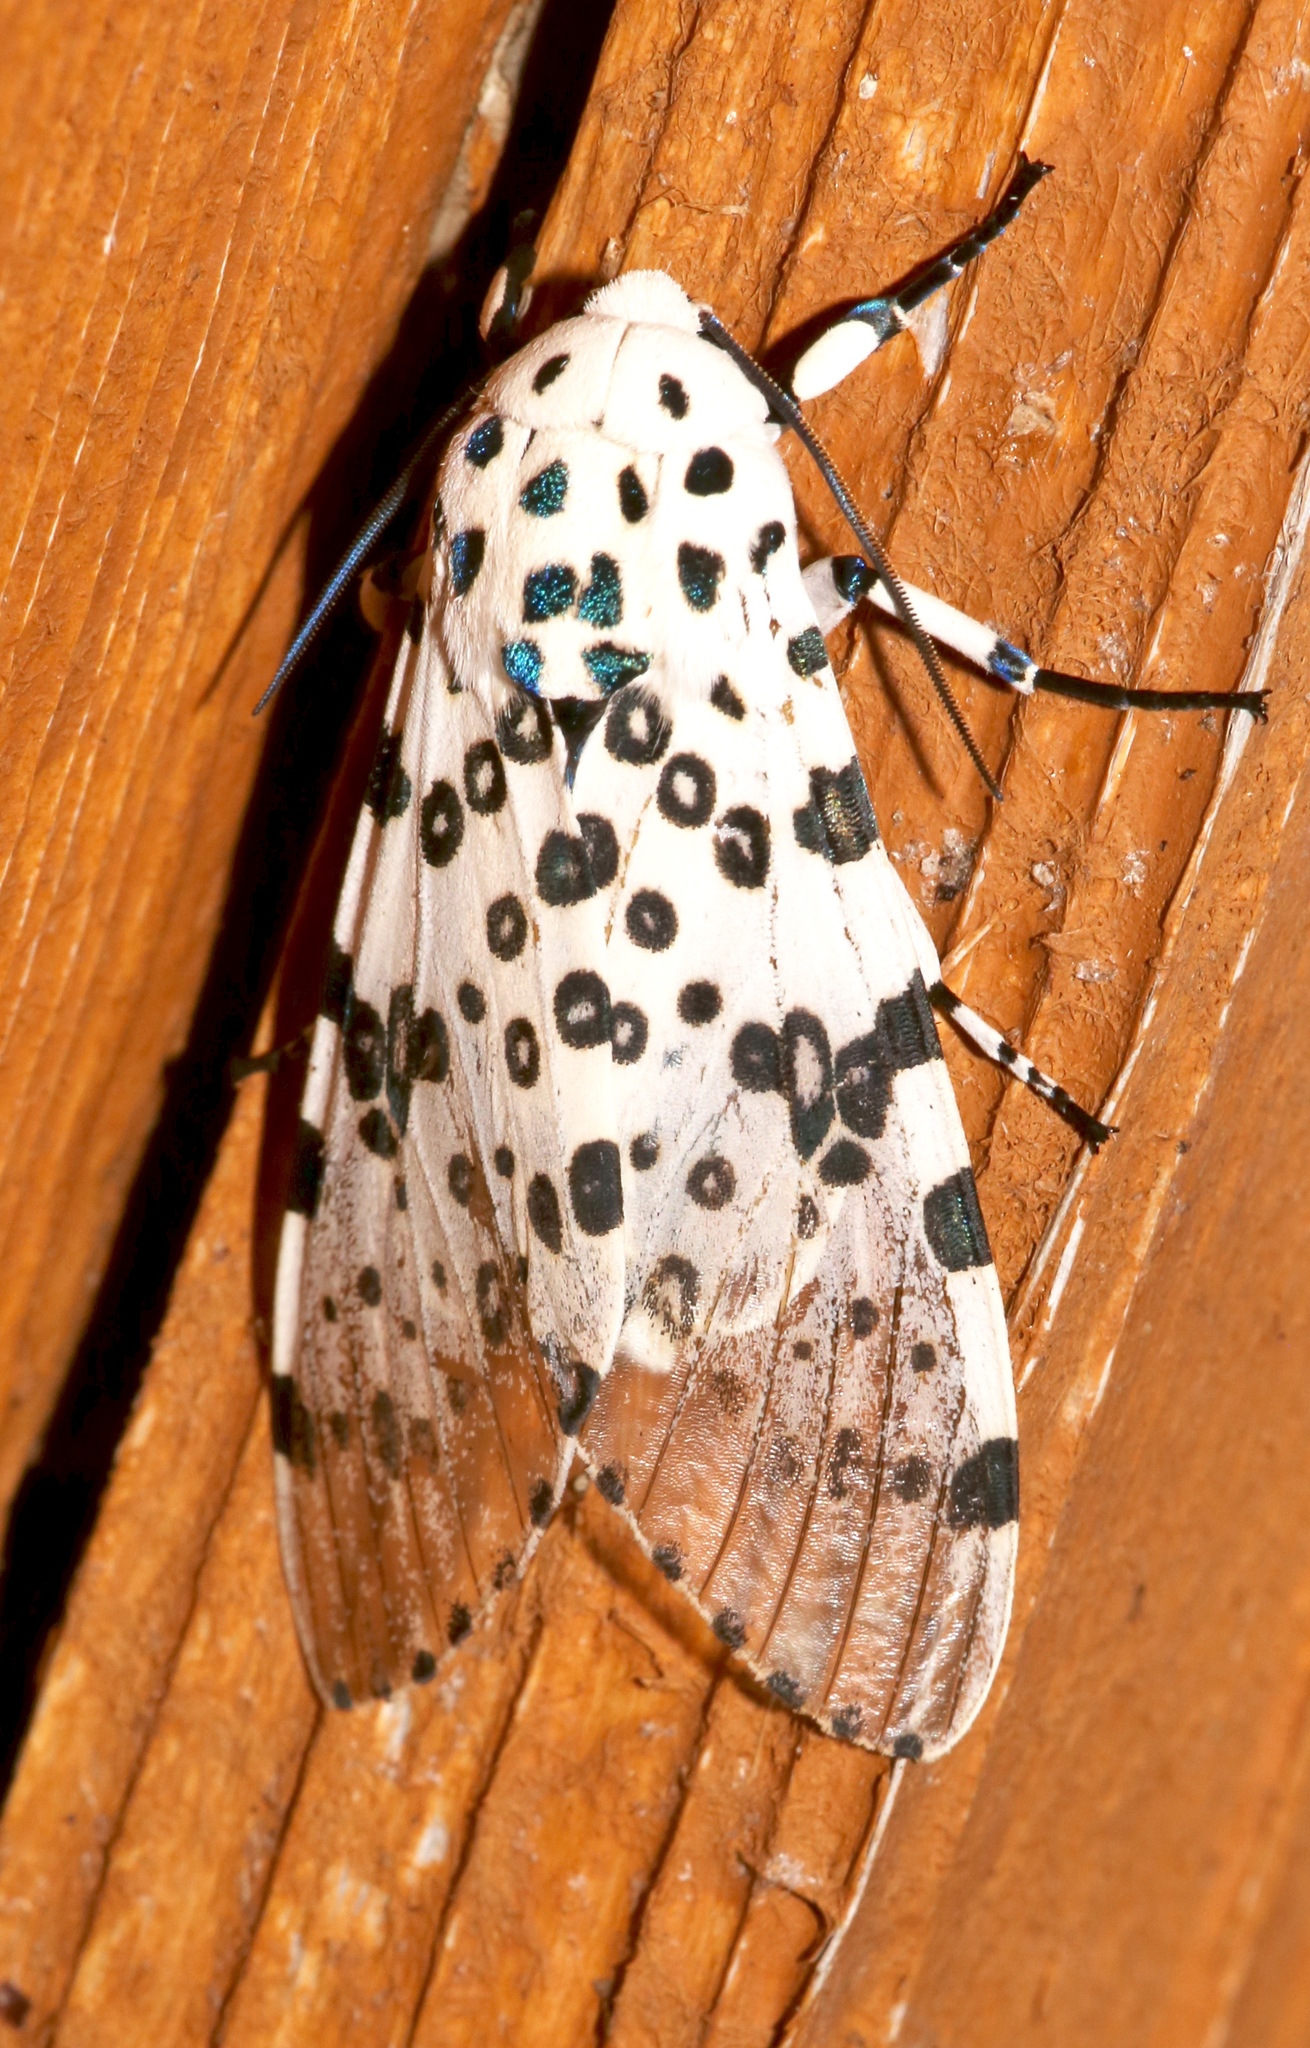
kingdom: Animalia
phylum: Arthropoda
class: Insecta
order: Lepidoptera
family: Erebidae
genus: Hypercompe
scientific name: Hypercompe scribonia
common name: Giant leopard moth
